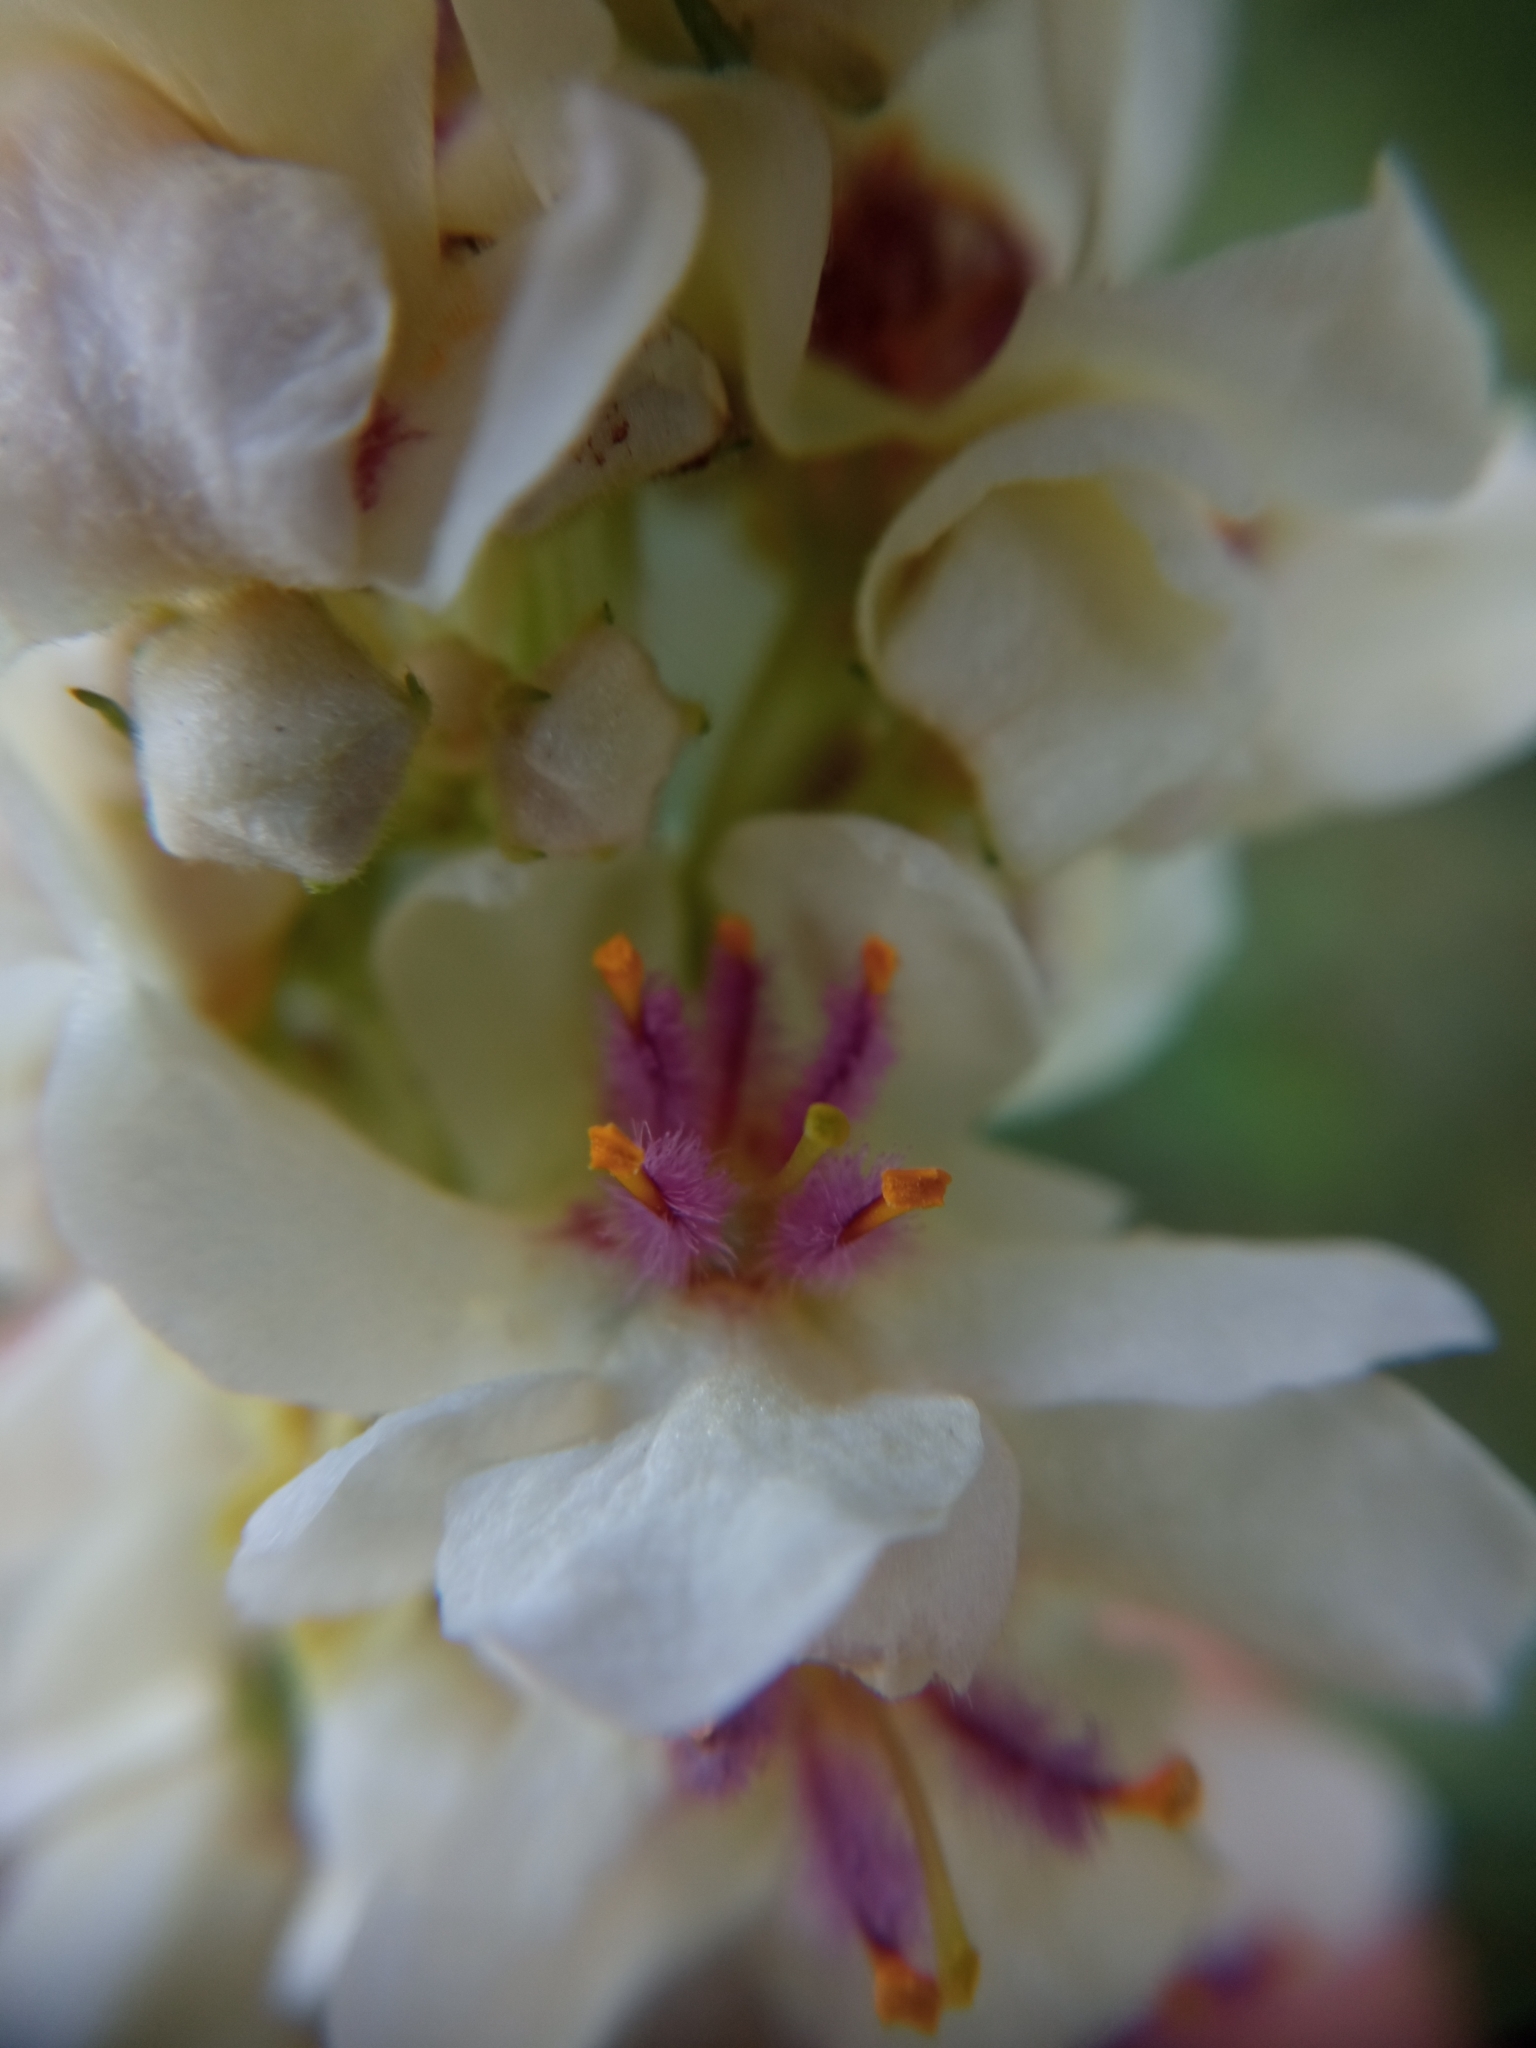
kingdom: Plantae
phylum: Tracheophyta
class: Magnoliopsida
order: Lamiales
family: Scrophulariaceae
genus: Verbascum
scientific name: Verbascum nigrum
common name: Dark mullein
